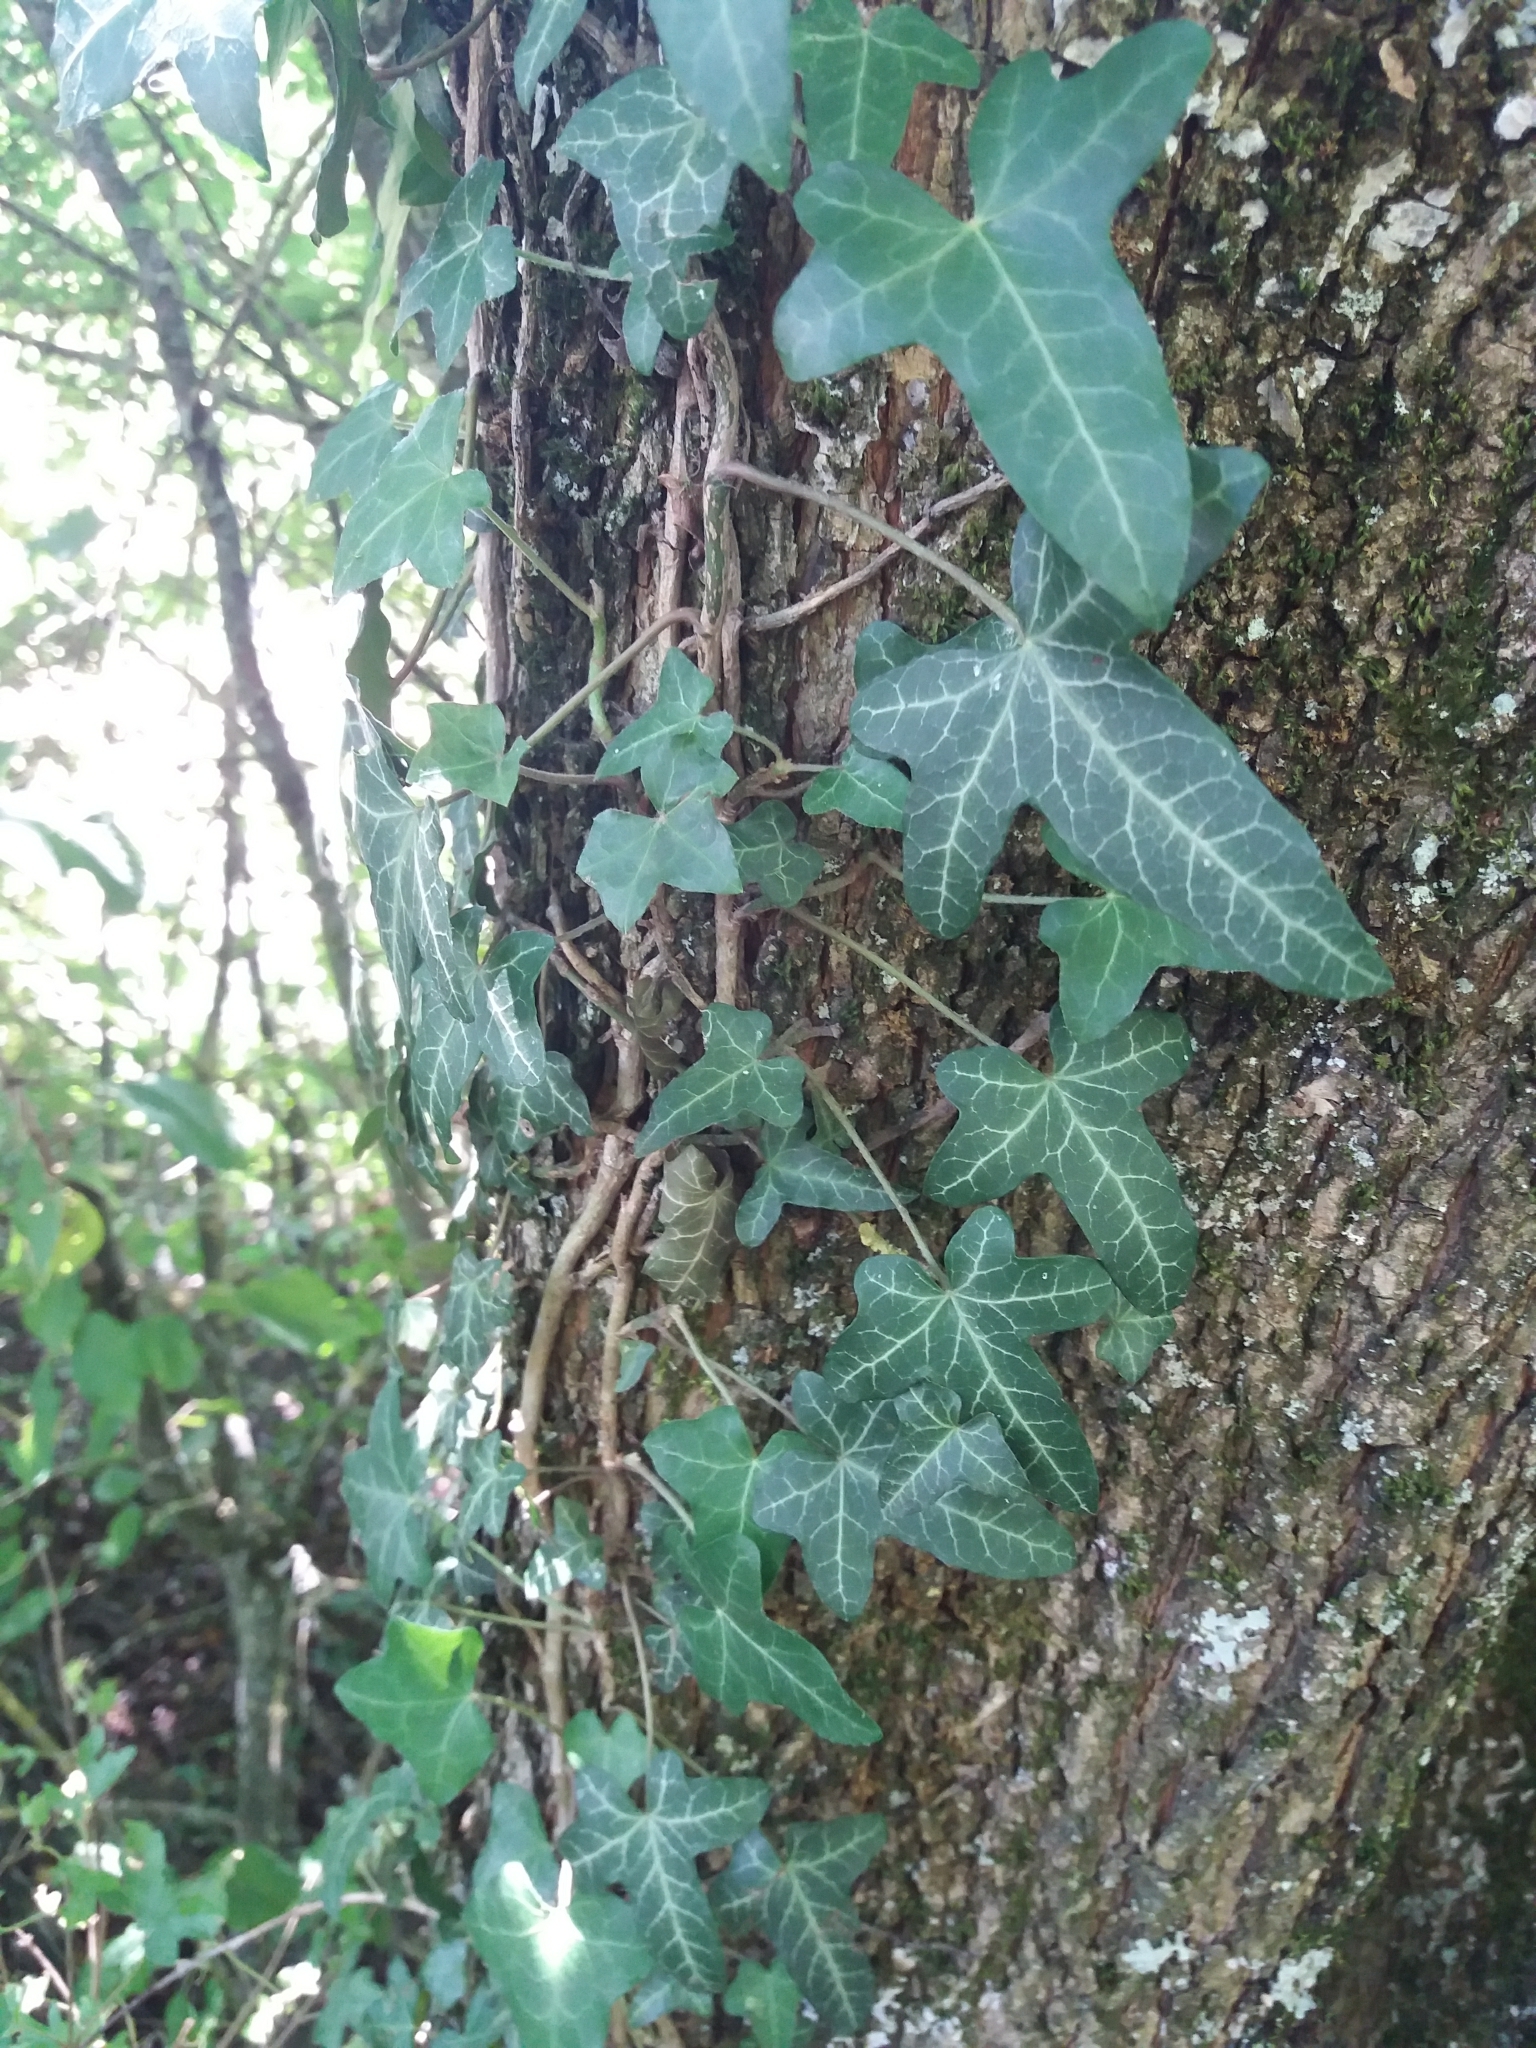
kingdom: Plantae
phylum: Tracheophyta
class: Magnoliopsida
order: Apiales
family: Araliaceae
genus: Hedera
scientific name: Hedera helix
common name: Ivy
